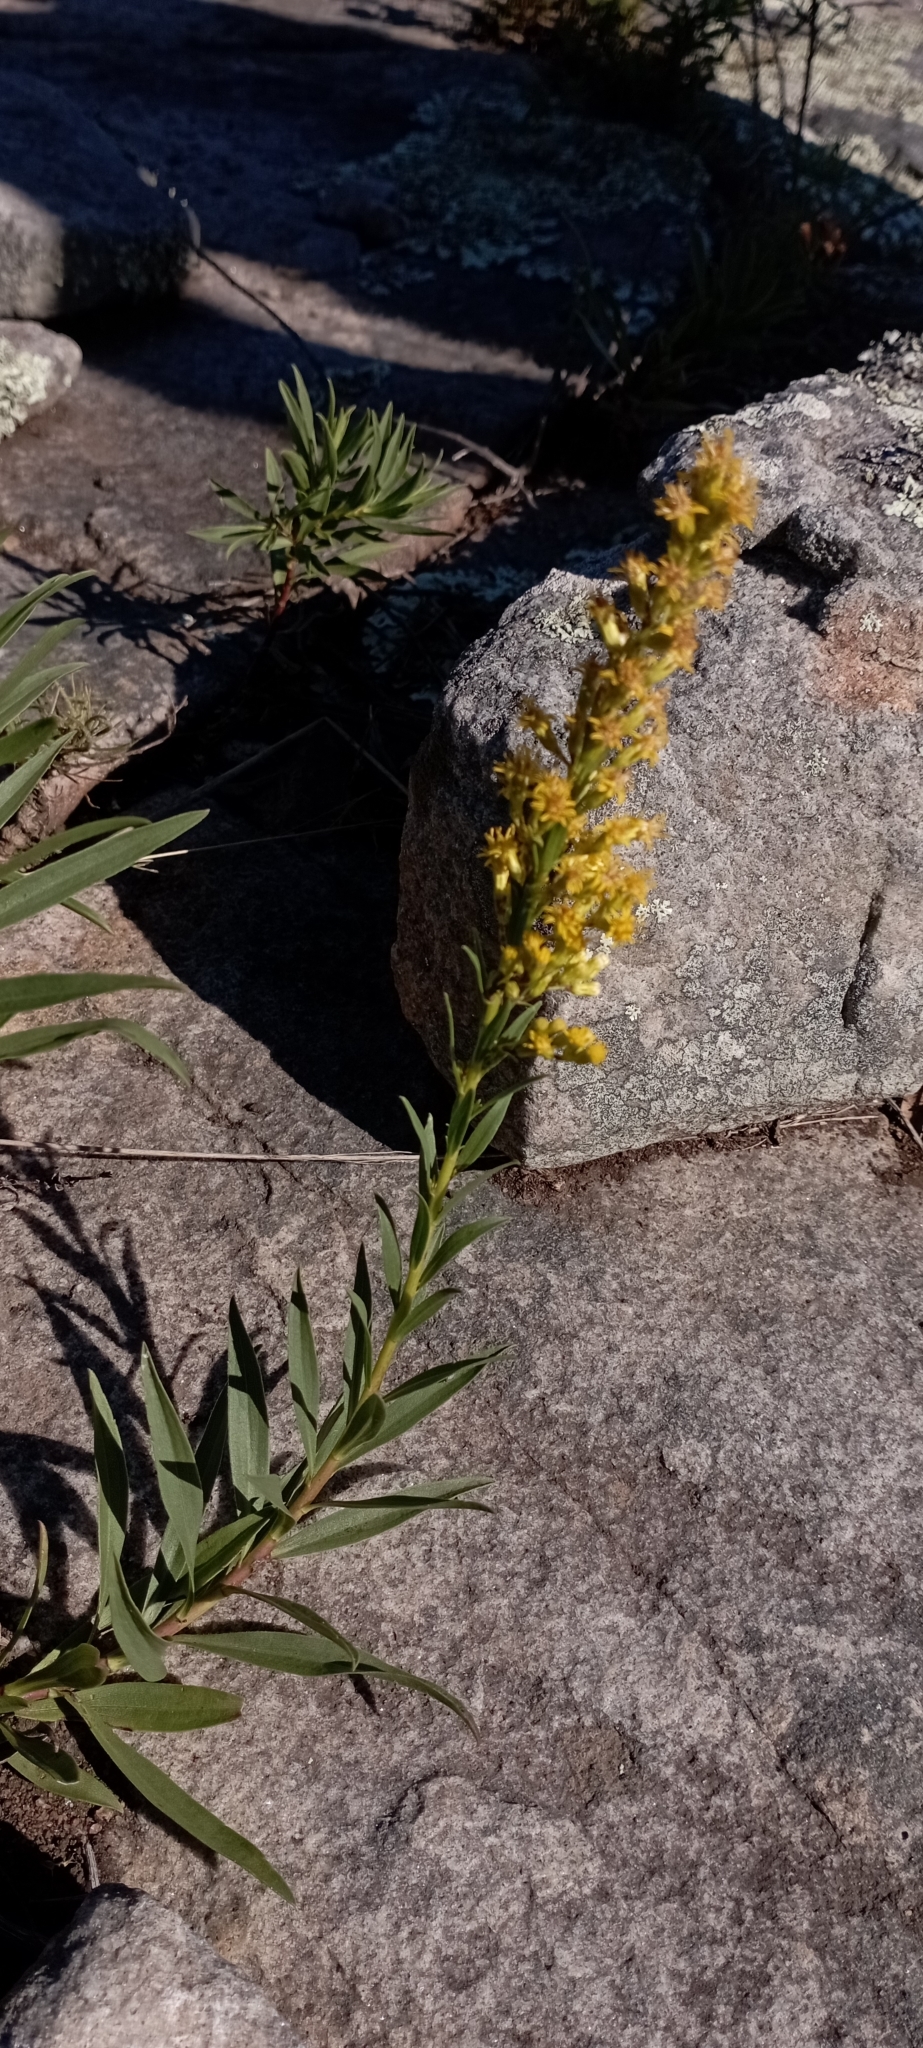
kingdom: Plantae
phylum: Tracheophyta
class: Magnoliopsida
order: Asterales
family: Asteraceae
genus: Solidago
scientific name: Solidago chilensis
